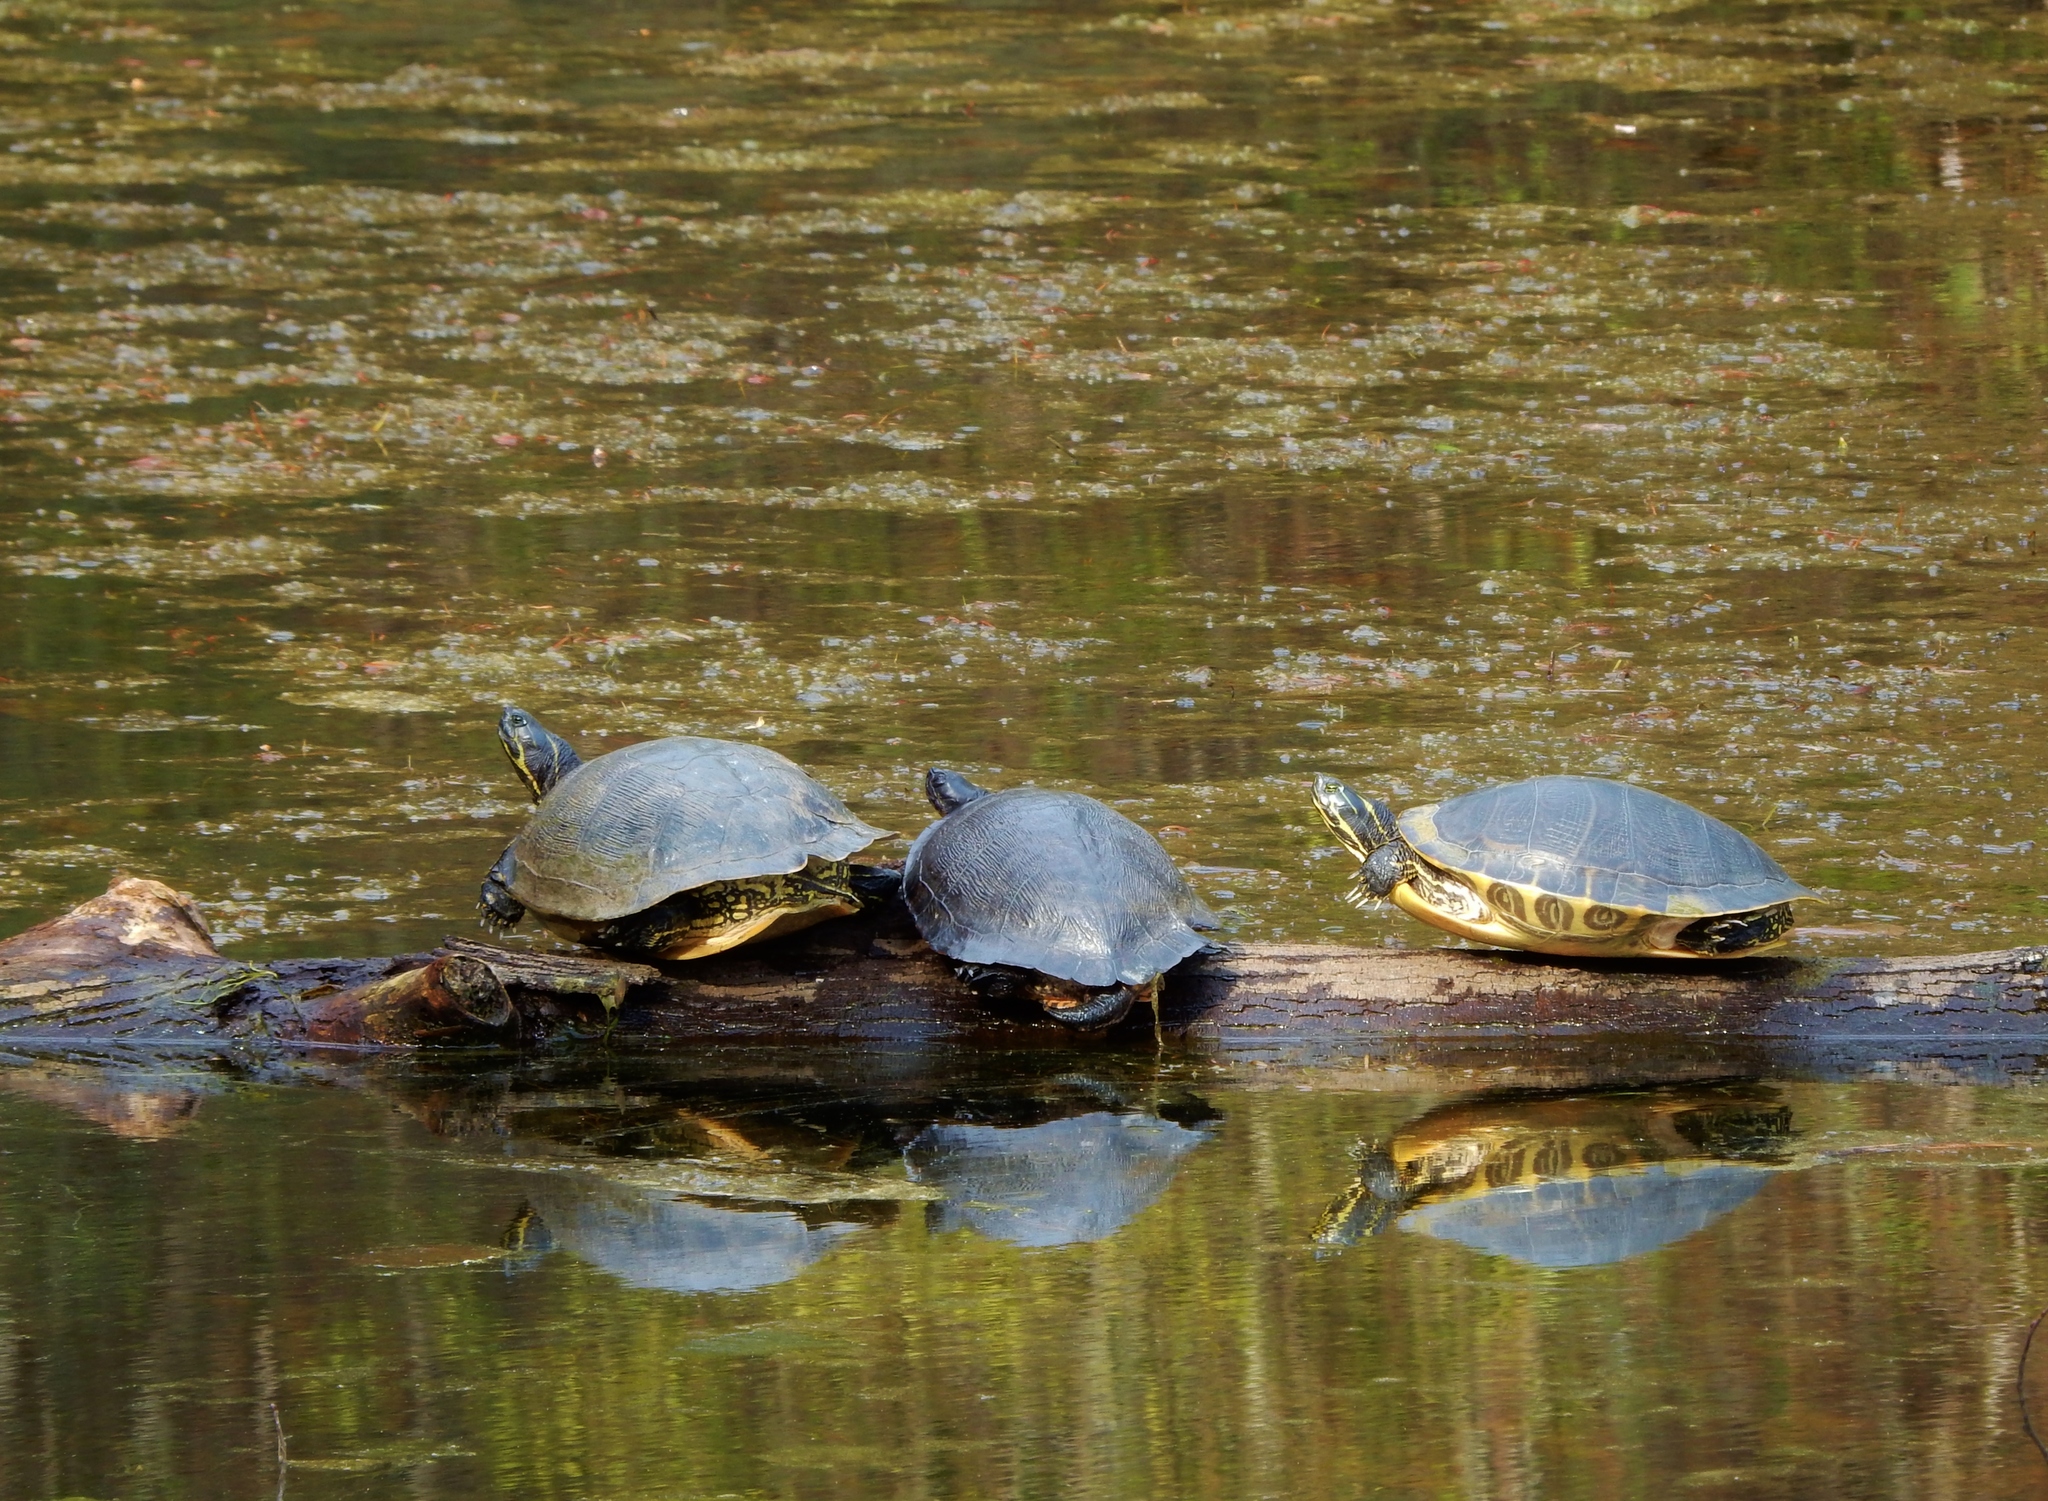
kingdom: Animalia
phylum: Chordata
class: Testudines
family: Emydidae
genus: Trachemys
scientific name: Trachemys scripta
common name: Slider
